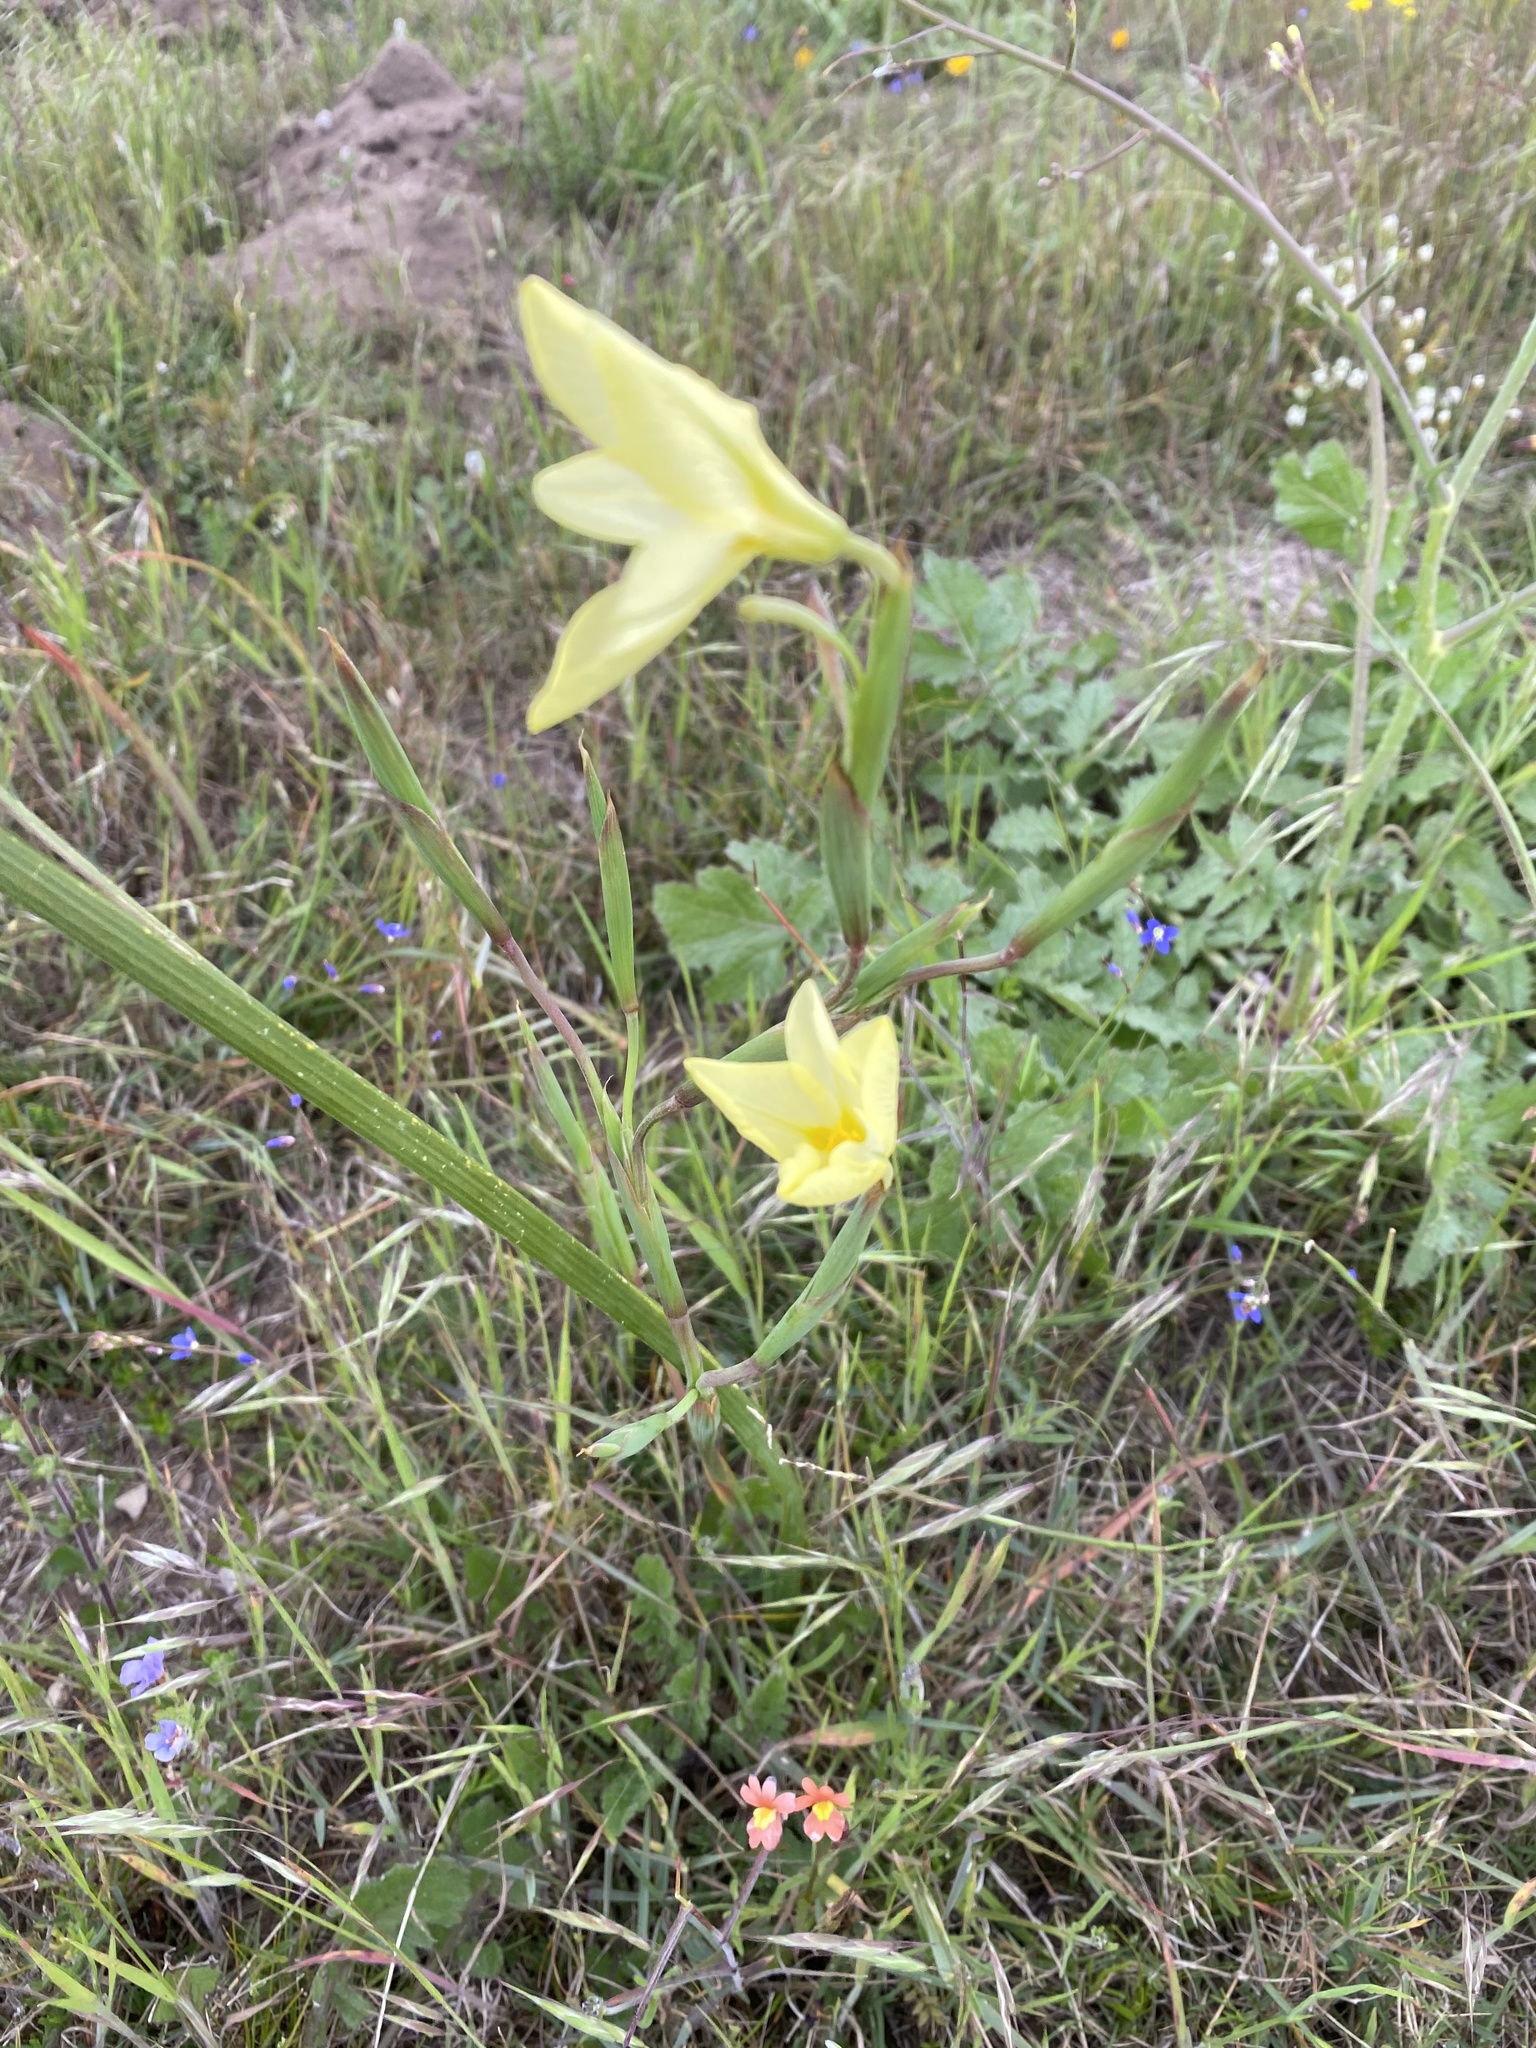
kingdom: Plantae
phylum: Tracheophyta
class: Liliopsida
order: Asparagales
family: Iridaceae
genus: Moraea
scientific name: Moraea collina
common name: Cape-tulip
